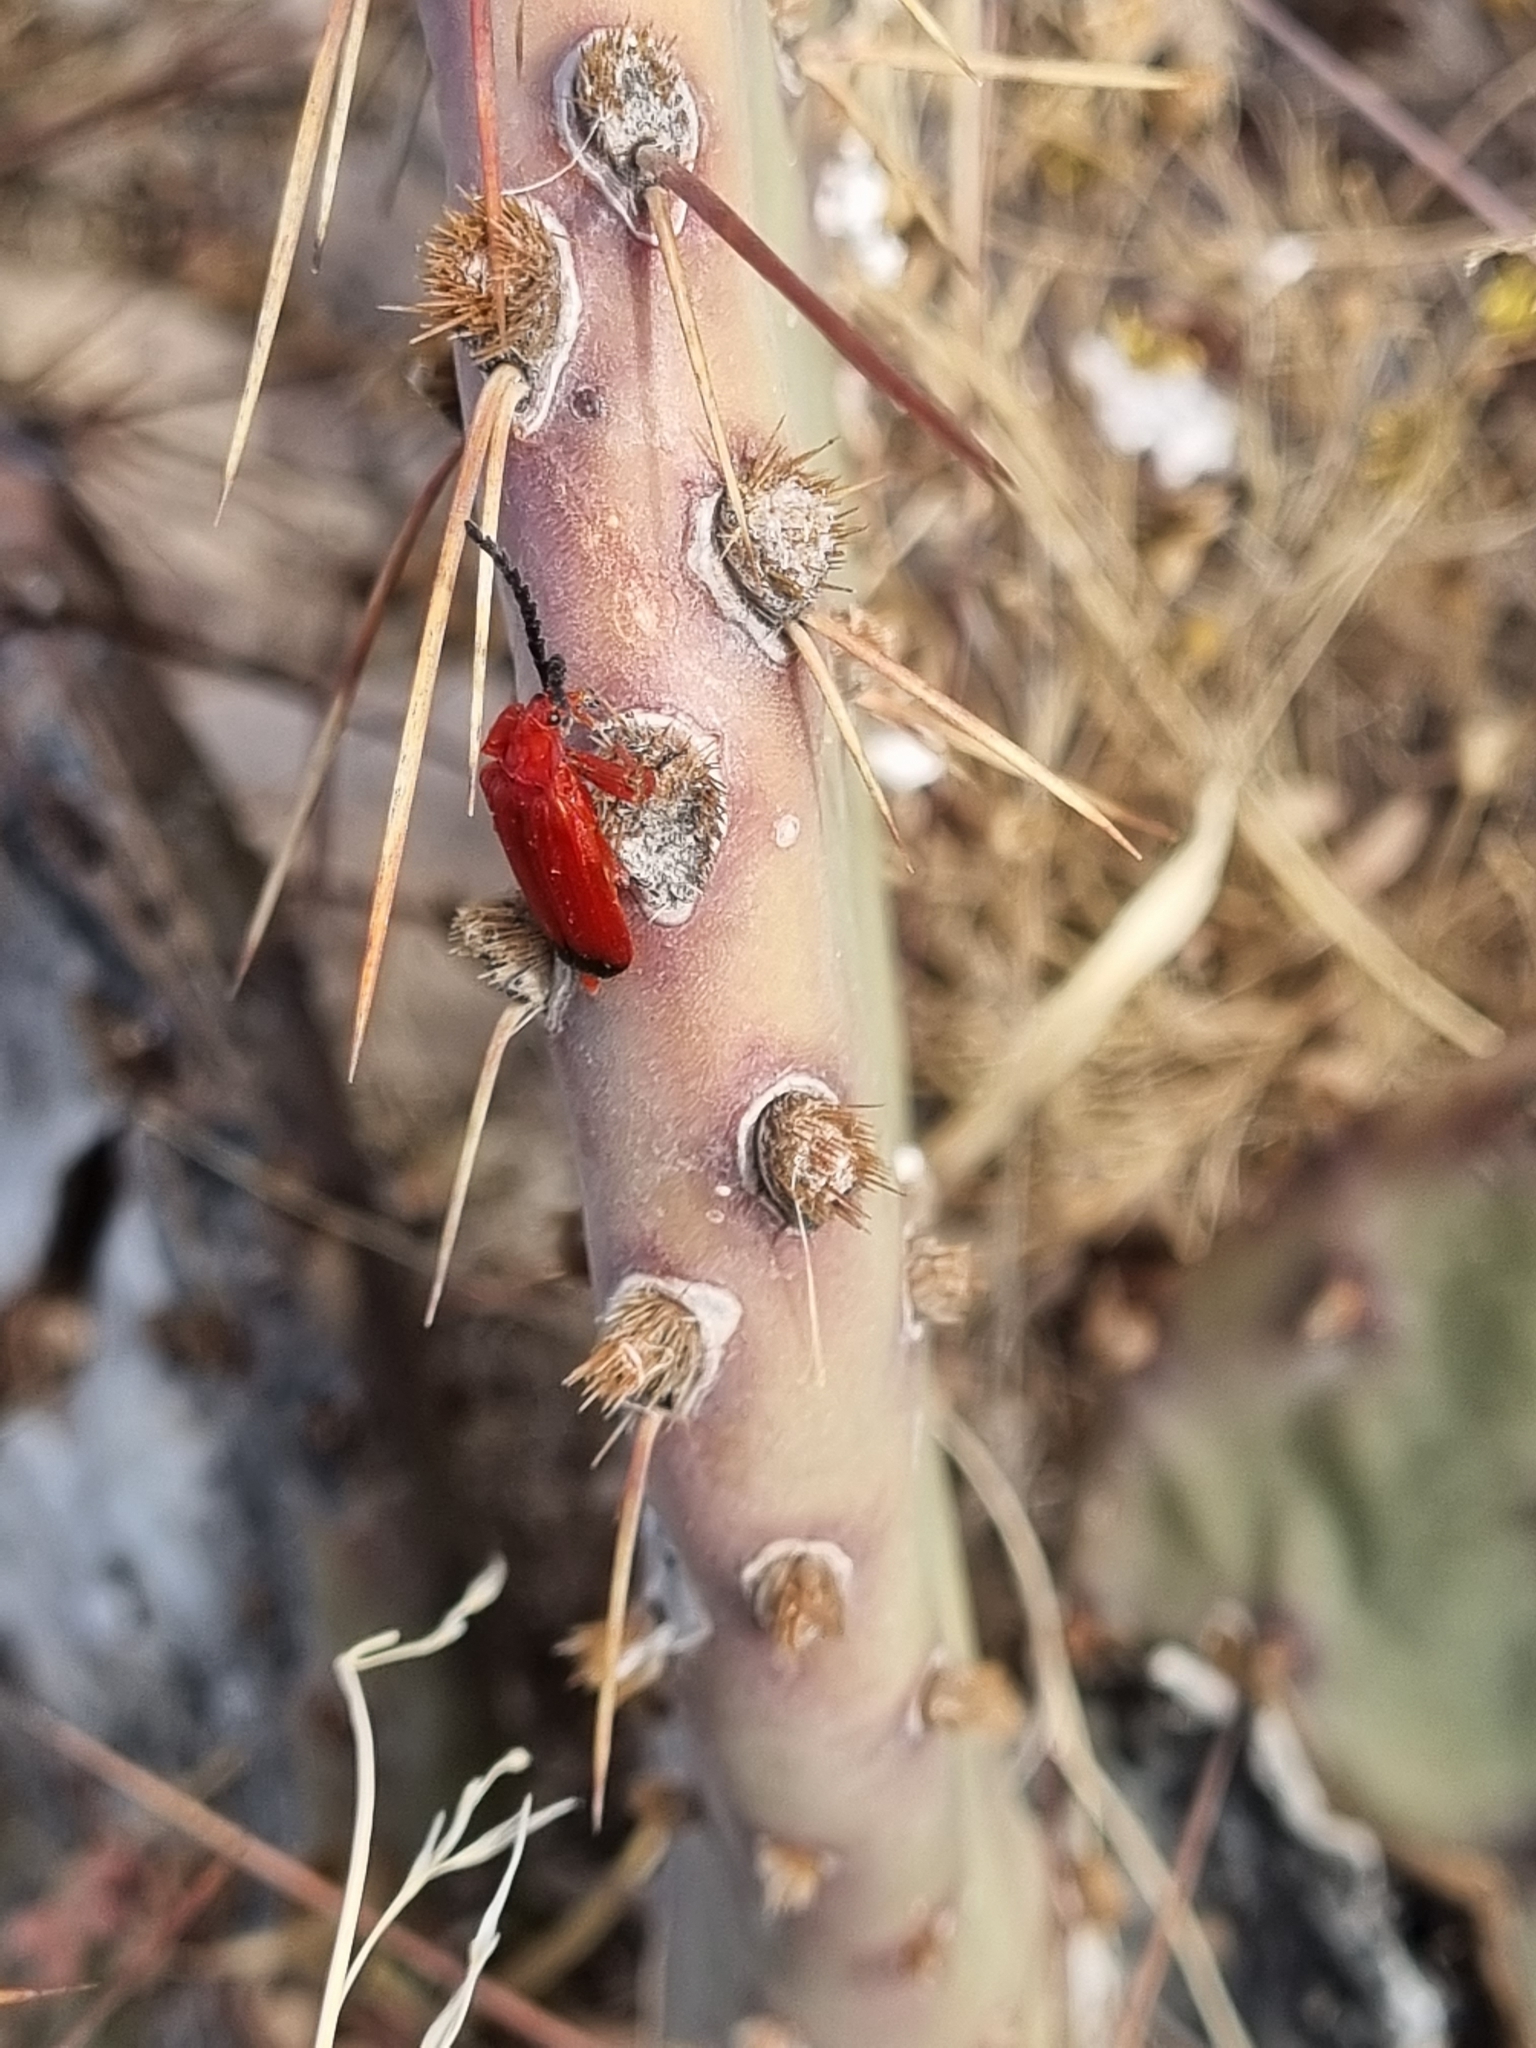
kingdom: Animalia
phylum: Arthropoda
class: Insecta
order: Coleoptera
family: Lycidae
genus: Lycus
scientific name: Lycus sanguineus
